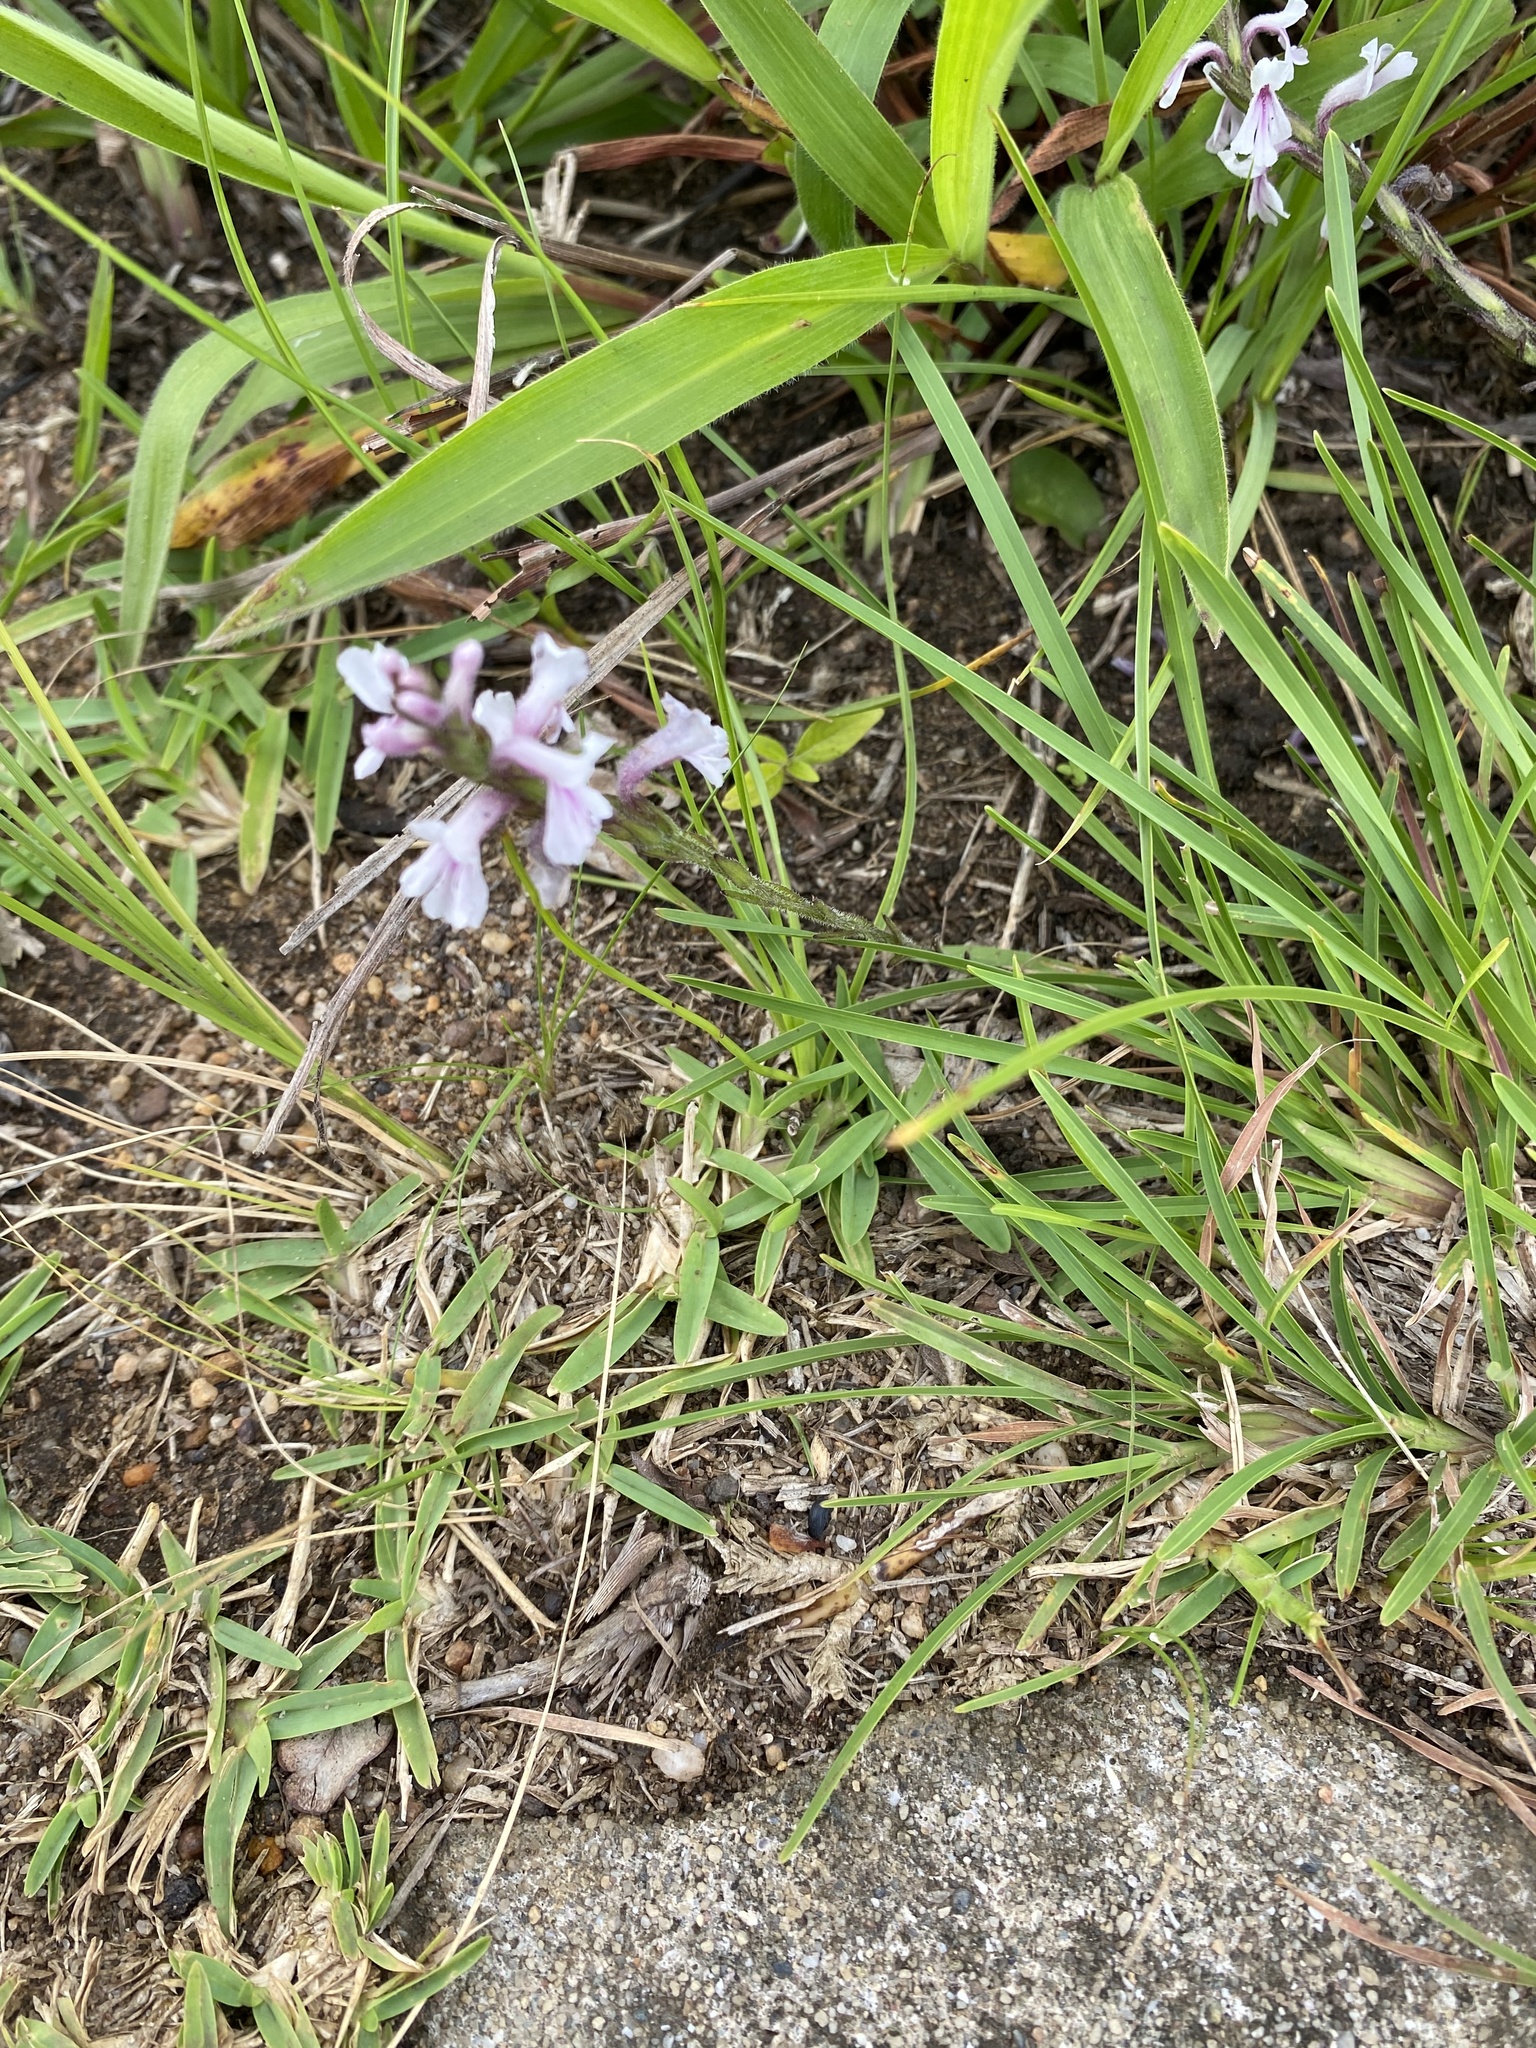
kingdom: Plantae
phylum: Tracheophyta
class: Magnoliopsida
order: Lamiales
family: Orobanchaceae
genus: Striga
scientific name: Striga bilabiata
